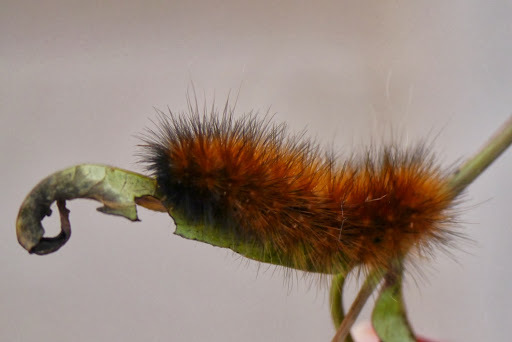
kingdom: Animalia
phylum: Arthropoda
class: Insecta
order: Lepidoptera
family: Erebidae
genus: Spilosoma
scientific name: Spilosoma virginica
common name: Virginia tiger moth
